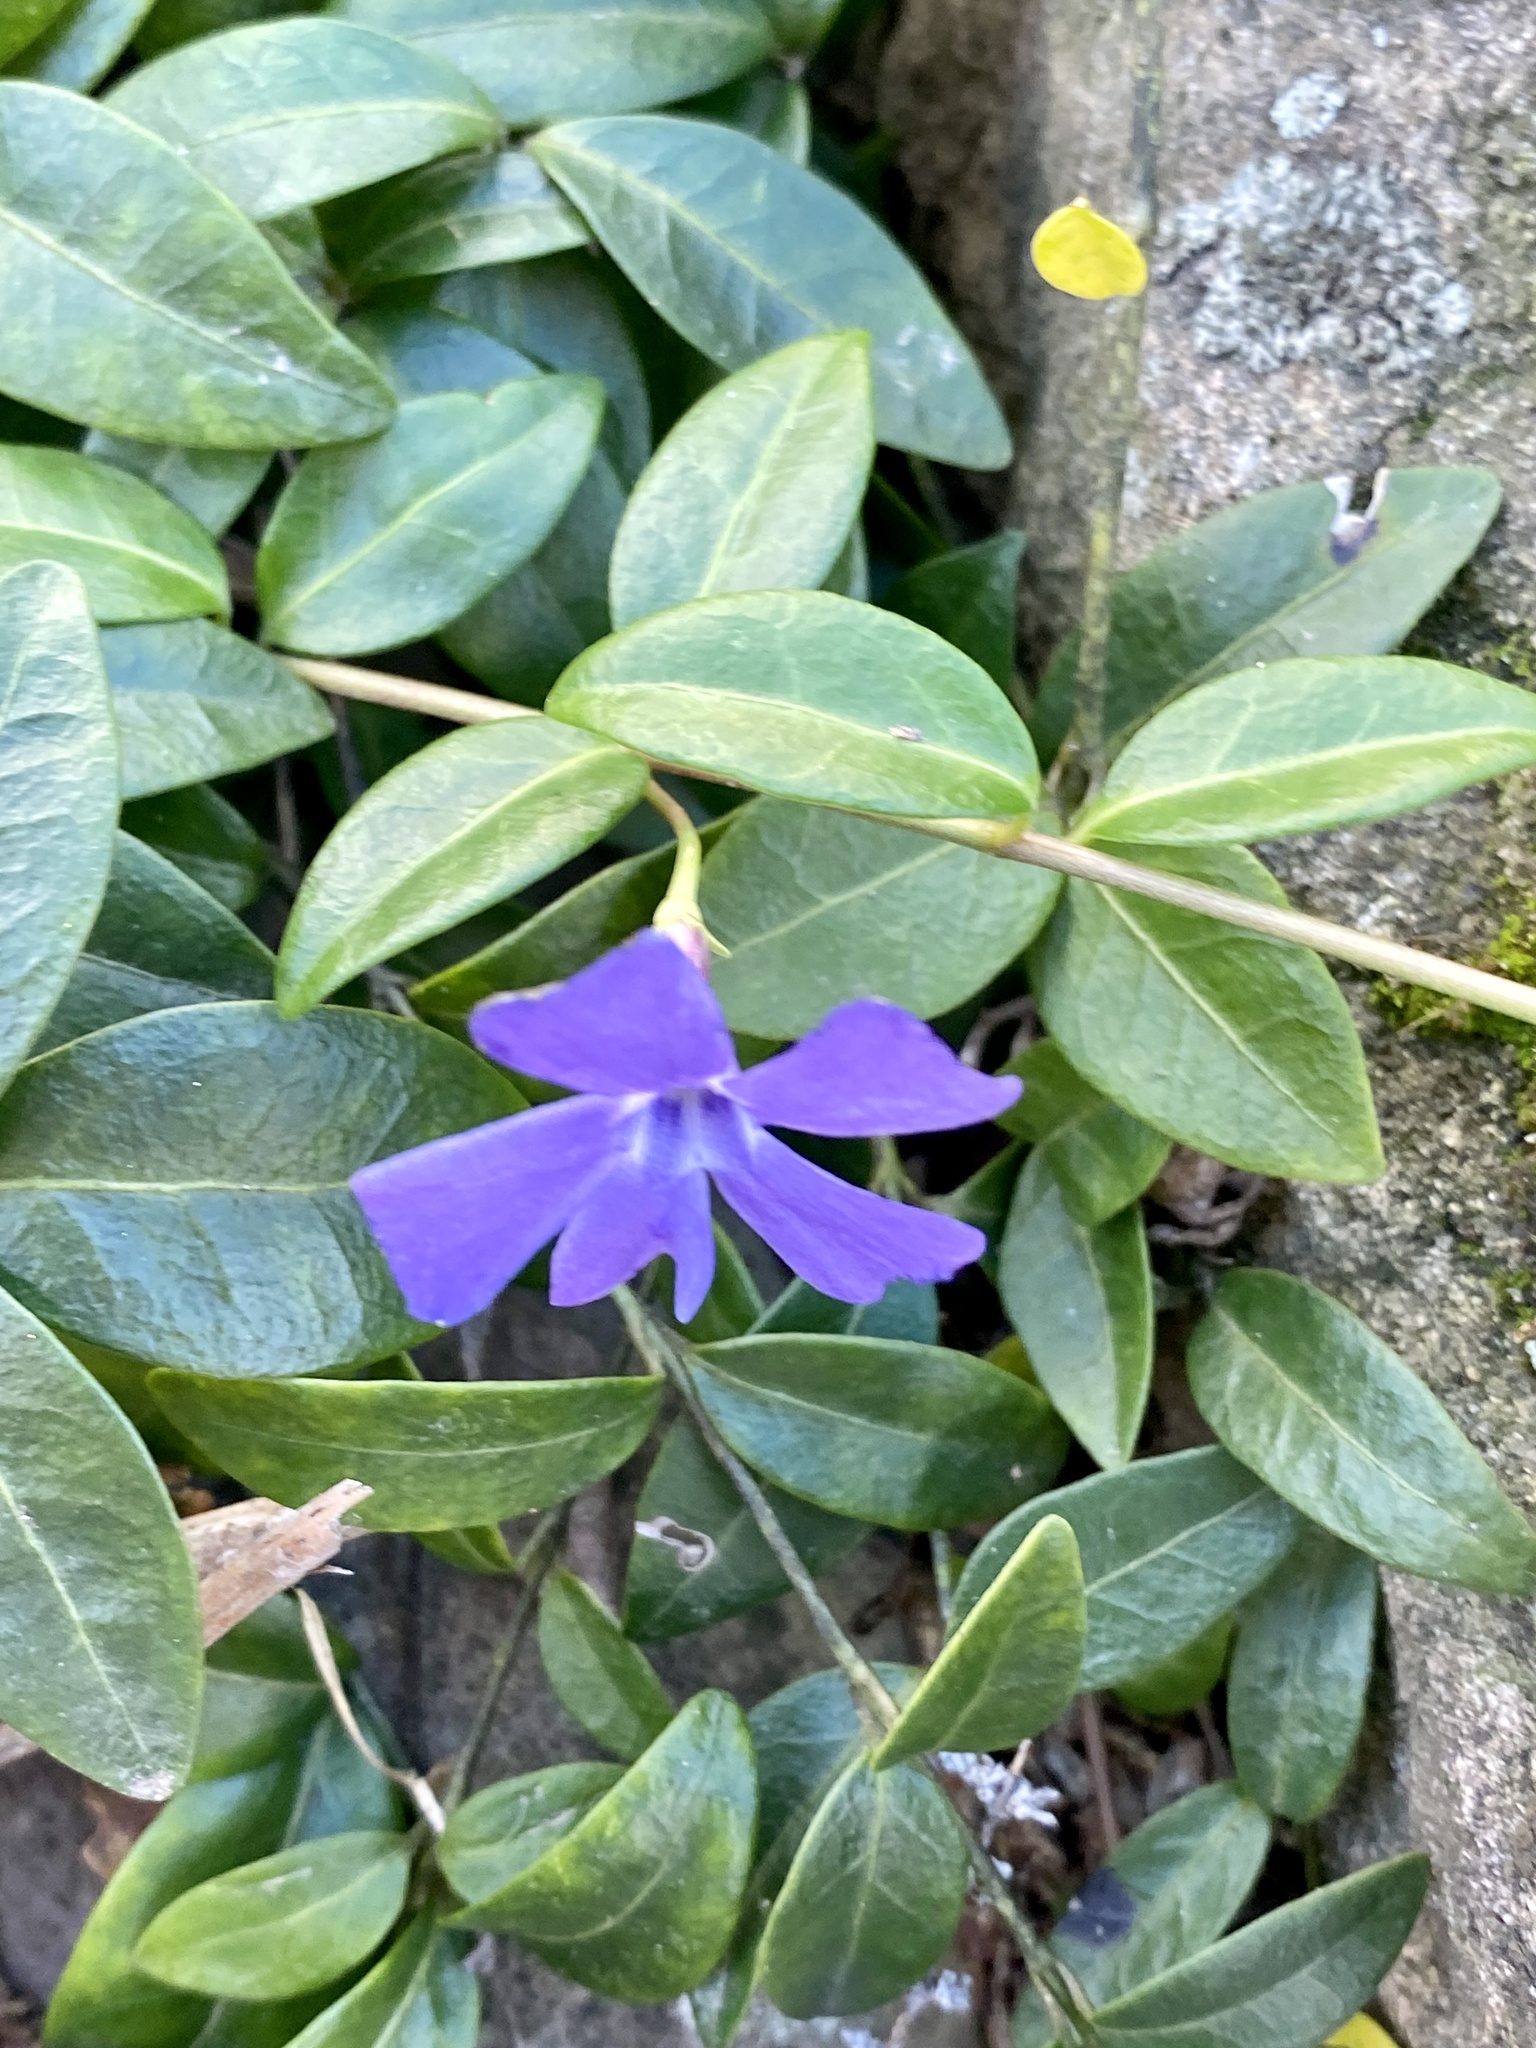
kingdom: Plantae
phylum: Tracheophyta
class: Magnoliopsida
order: Gentianales
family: Apocynaceae
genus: Vinca
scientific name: Vinca minor
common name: Lesser periwinkle
